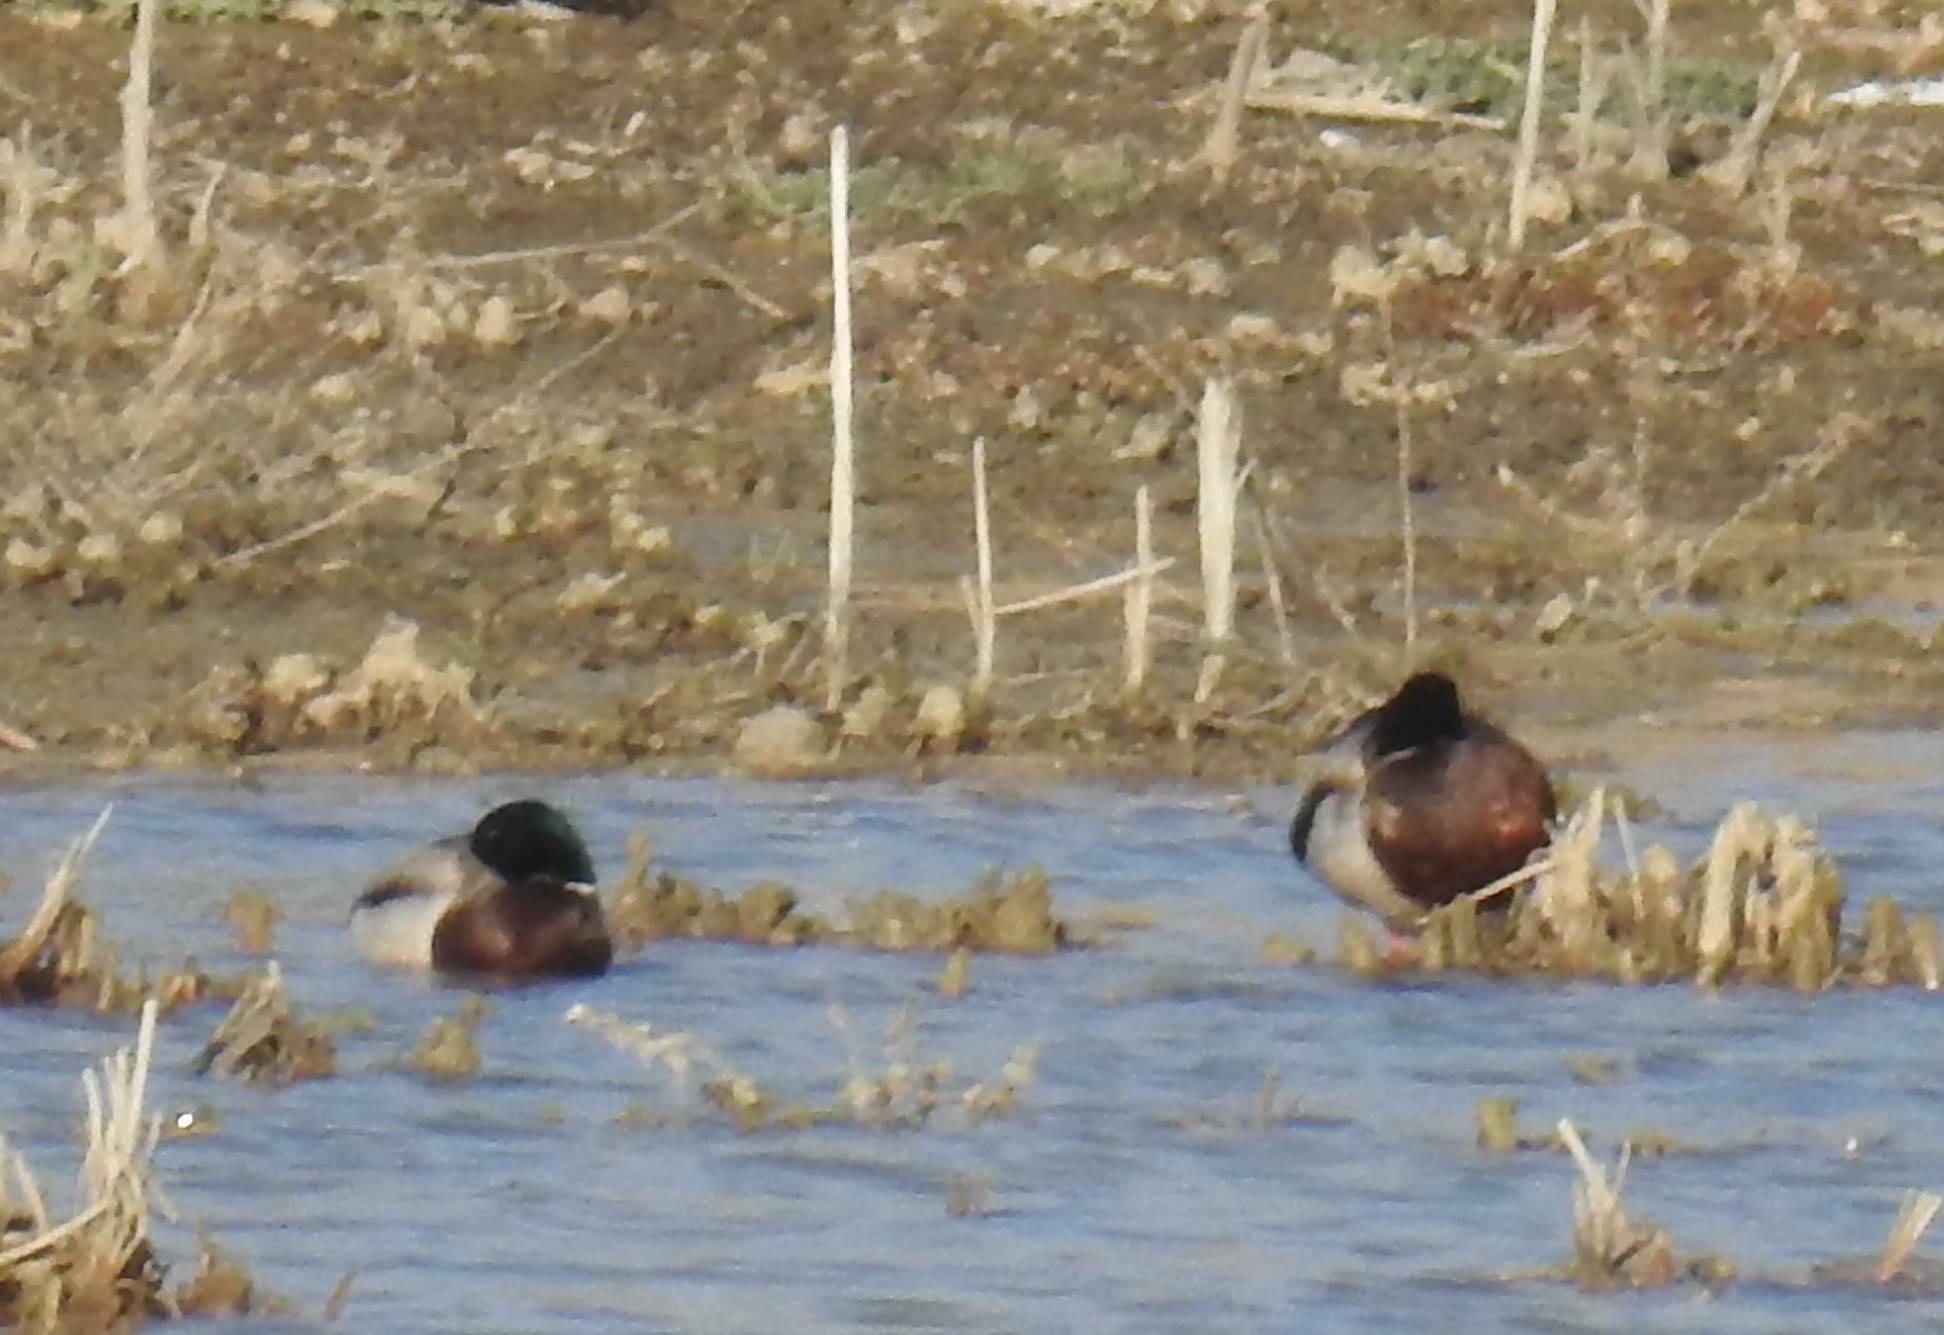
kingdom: Animalia
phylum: Chordata
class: Aves
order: Anseriformes
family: Anatidae
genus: Anas
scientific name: Anas platyrhynchos
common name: Mallard
